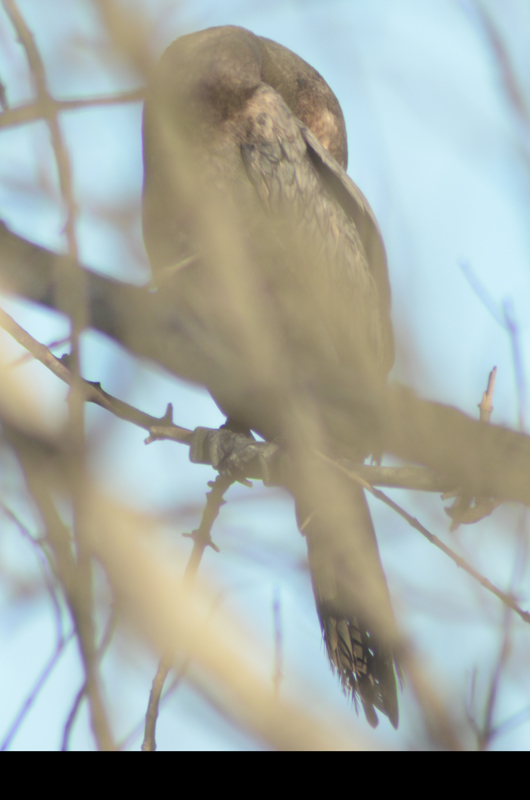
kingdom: Animalia
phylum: Chordata
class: Aves
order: Suliformes
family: Phalacrocoracidae
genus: Phalacrocorax
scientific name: Phalacrocorax auritus
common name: Double-crested cormorant
